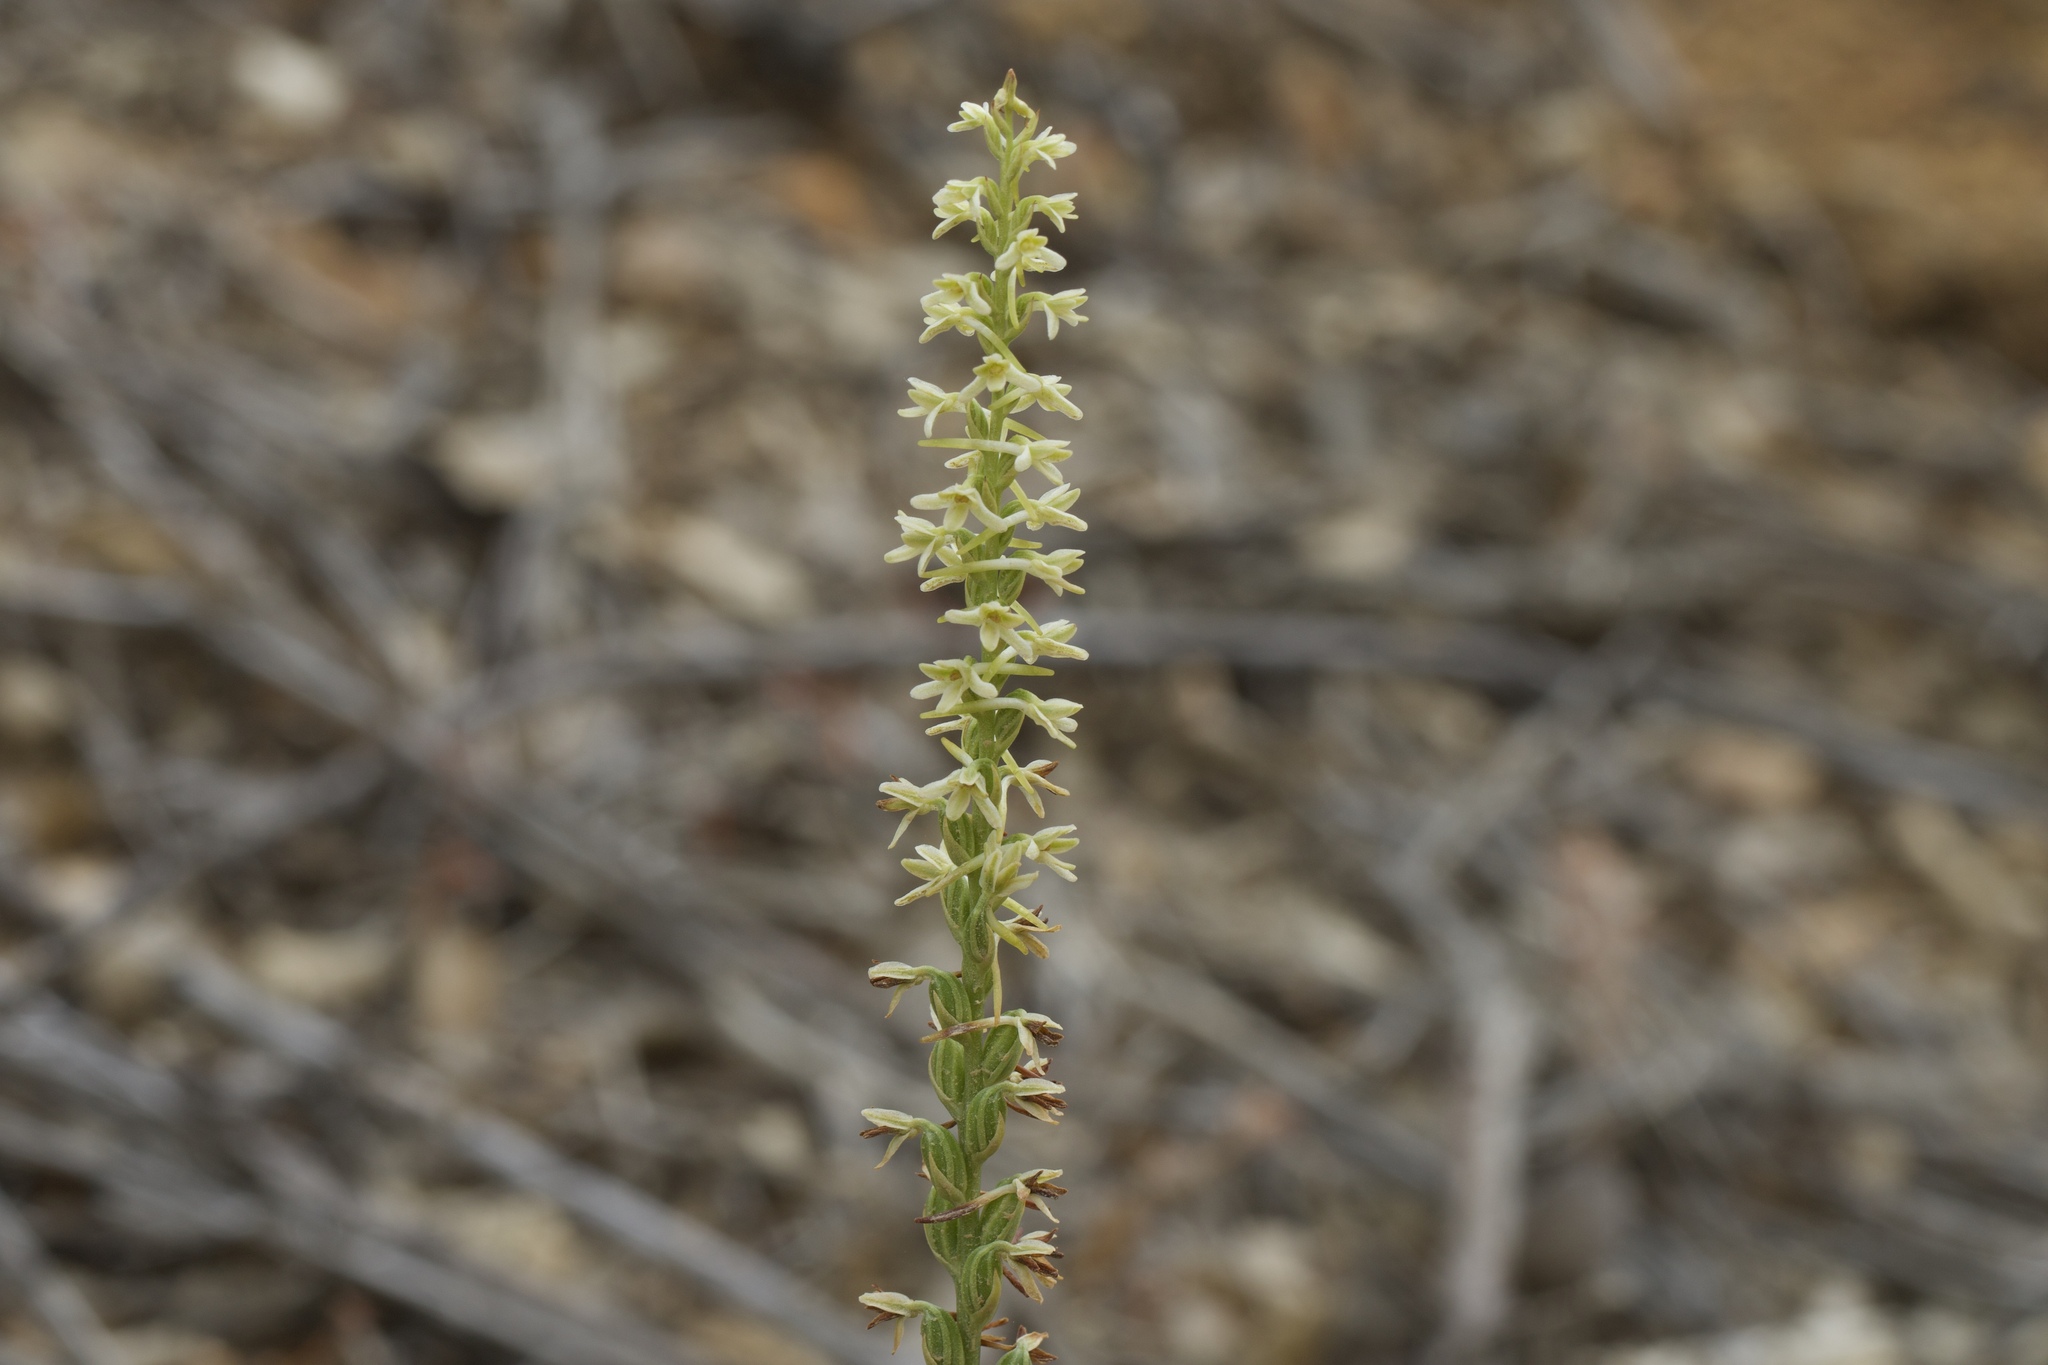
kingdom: Plantae
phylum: Tracheophyta
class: Liliopsida
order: Asparagales
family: Orchidaceae
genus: Platanthera
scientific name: Platanthera transversa
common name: Royal rein orchid
